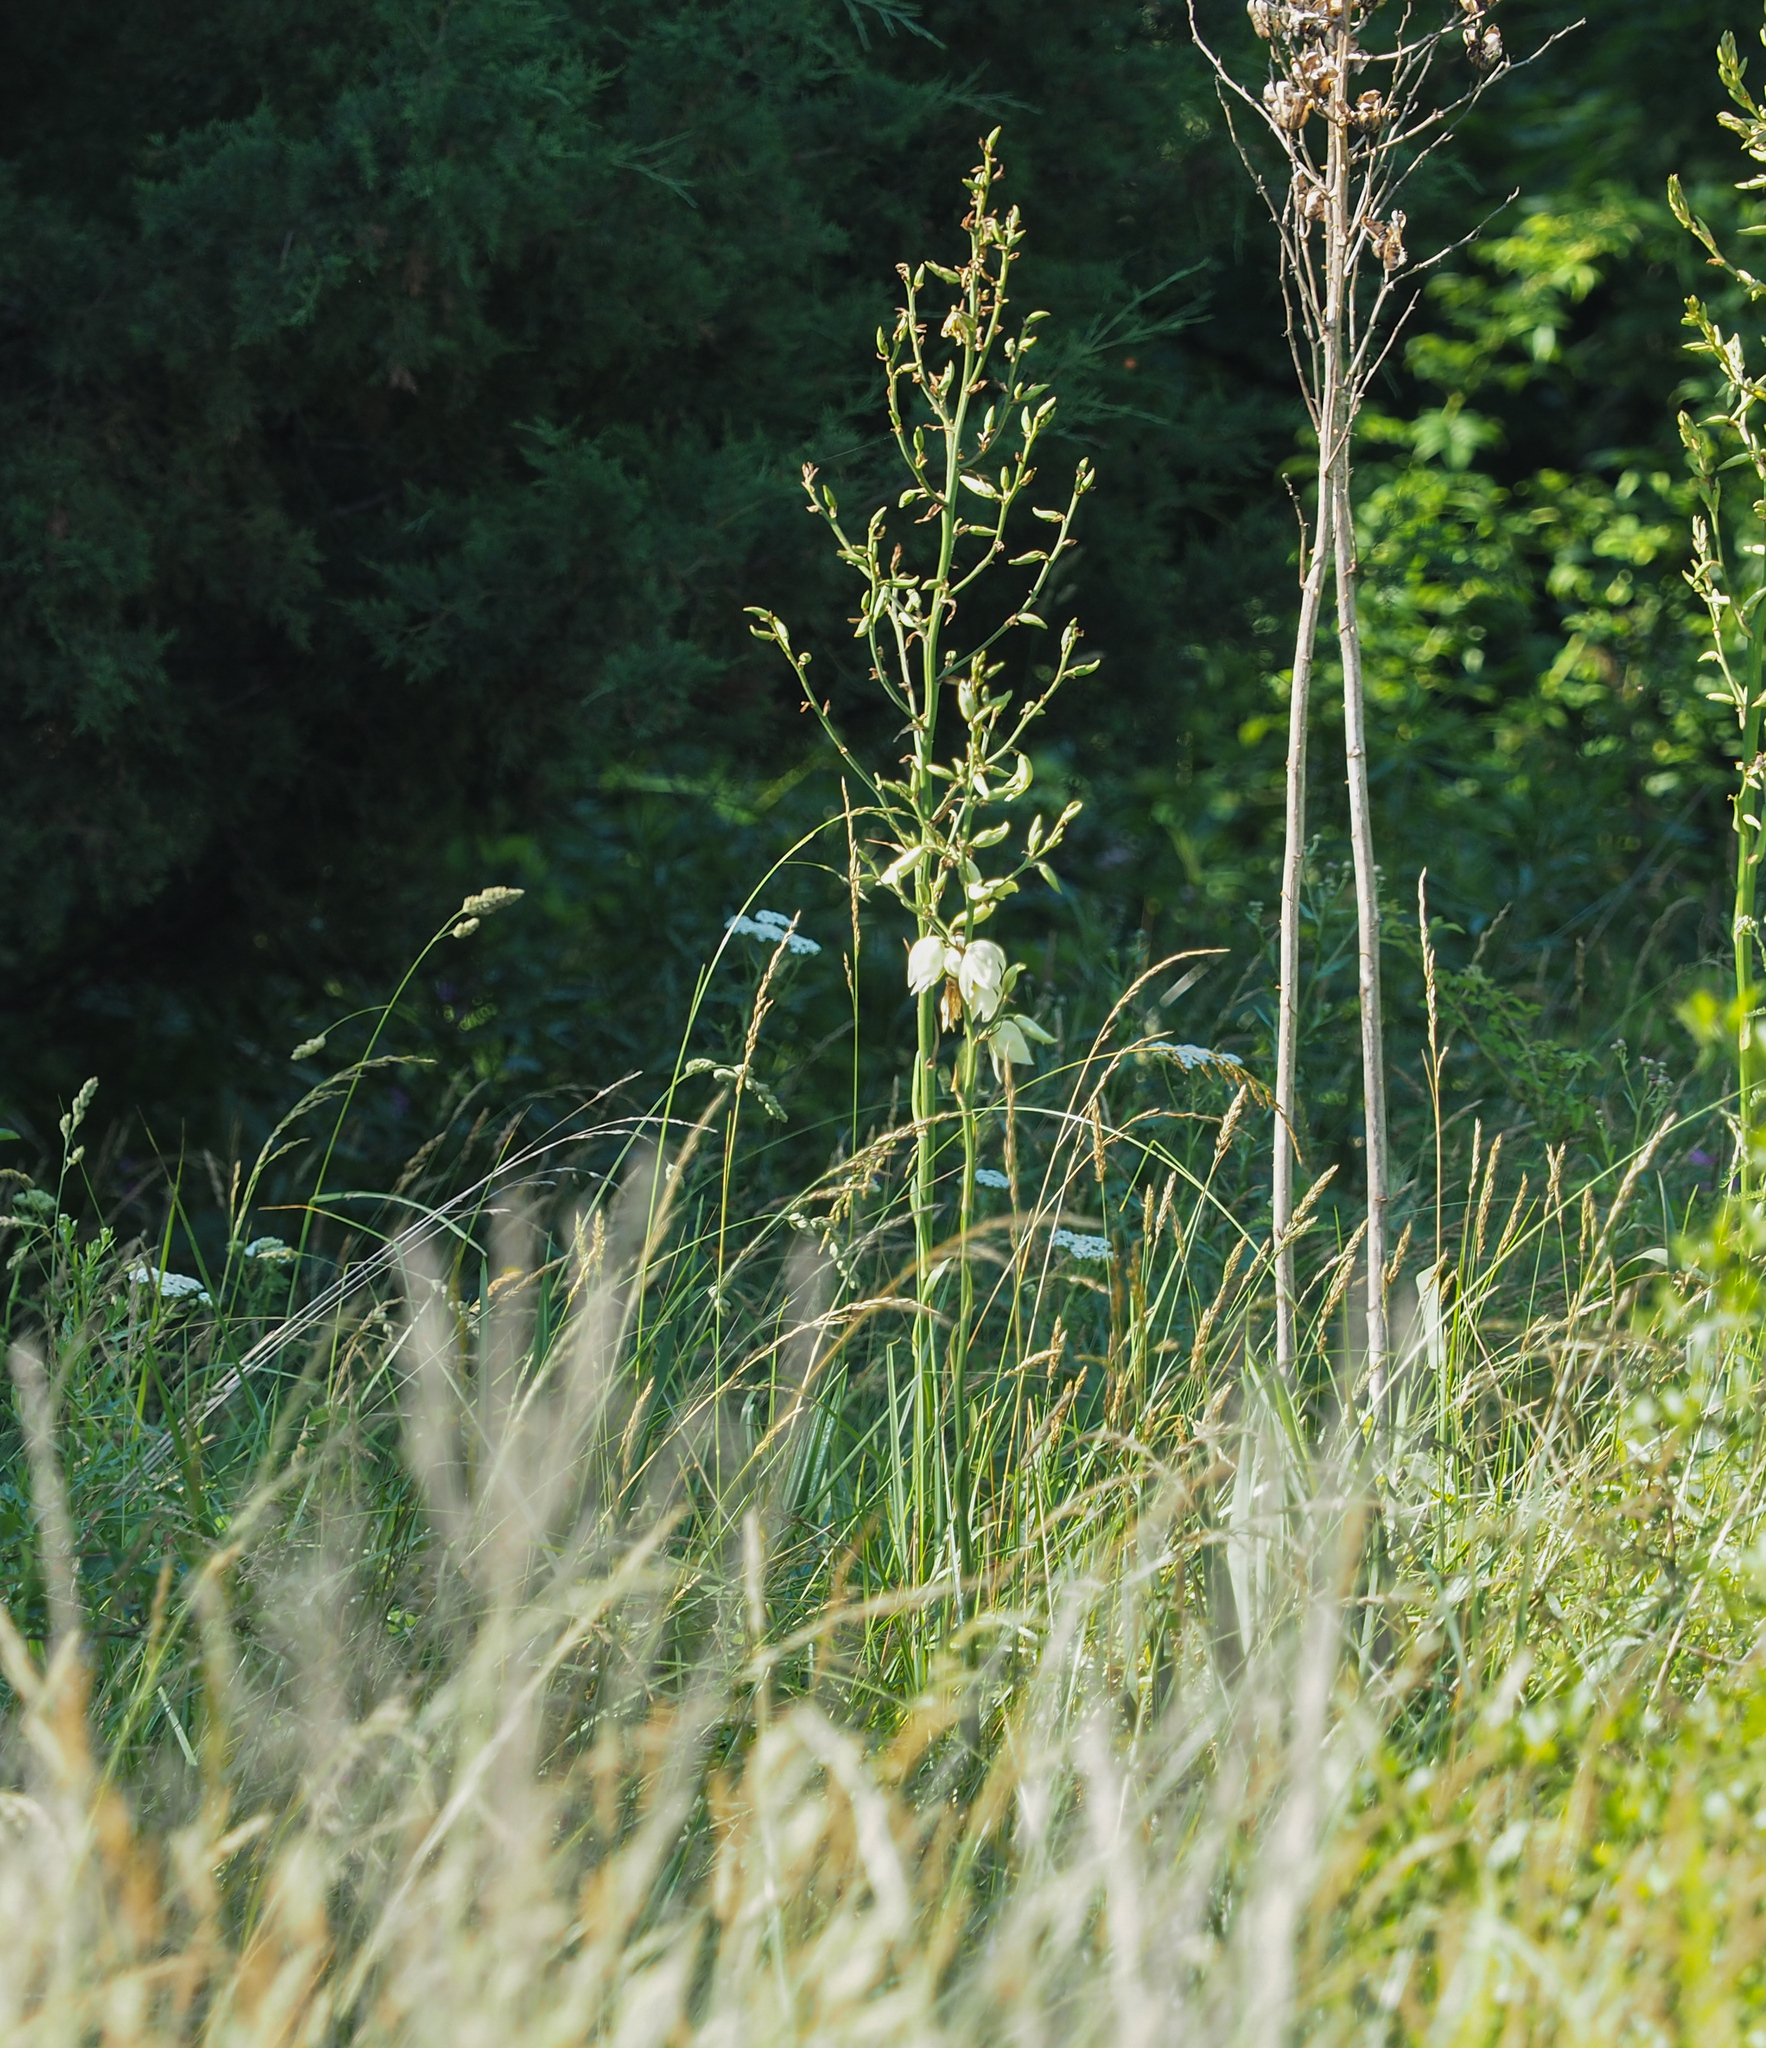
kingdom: Plantae
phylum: Tracheophyta
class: Liliopsida
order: Asparagales
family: Asparagaceae
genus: Yucca
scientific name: Yucca filamentosa
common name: Adam's-needle
